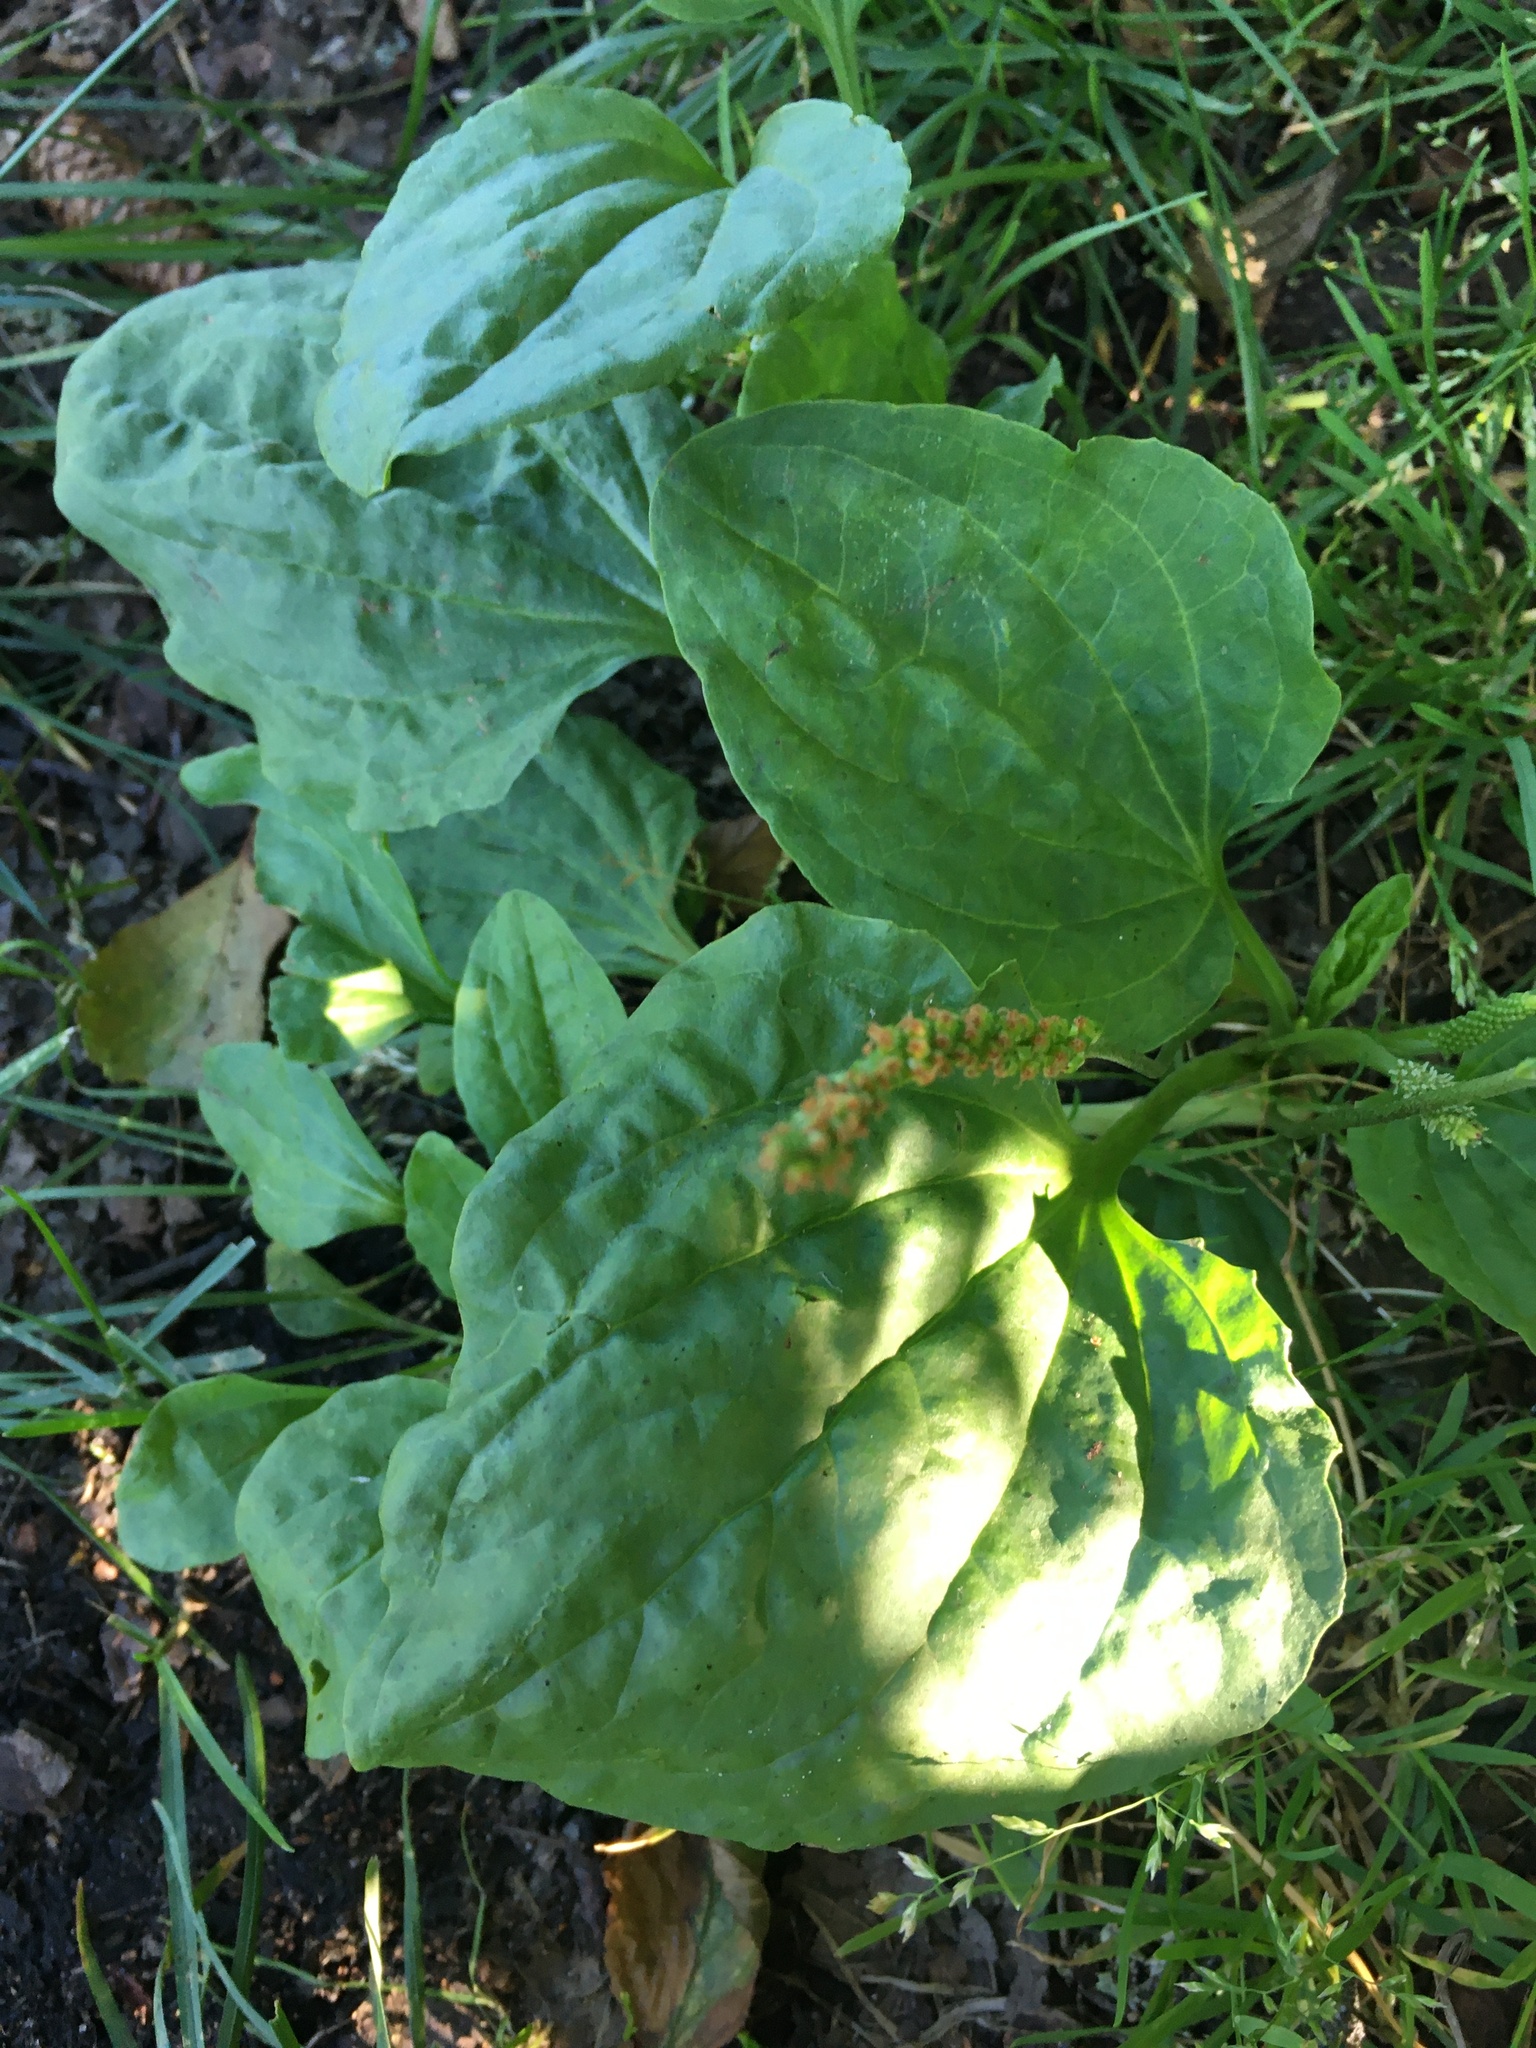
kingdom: Plantae
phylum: Tracheophyta
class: Magnoliopsida
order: Lamiales
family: Plantaginaceae
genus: Plantago
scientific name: Plantago major
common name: Common plantain
